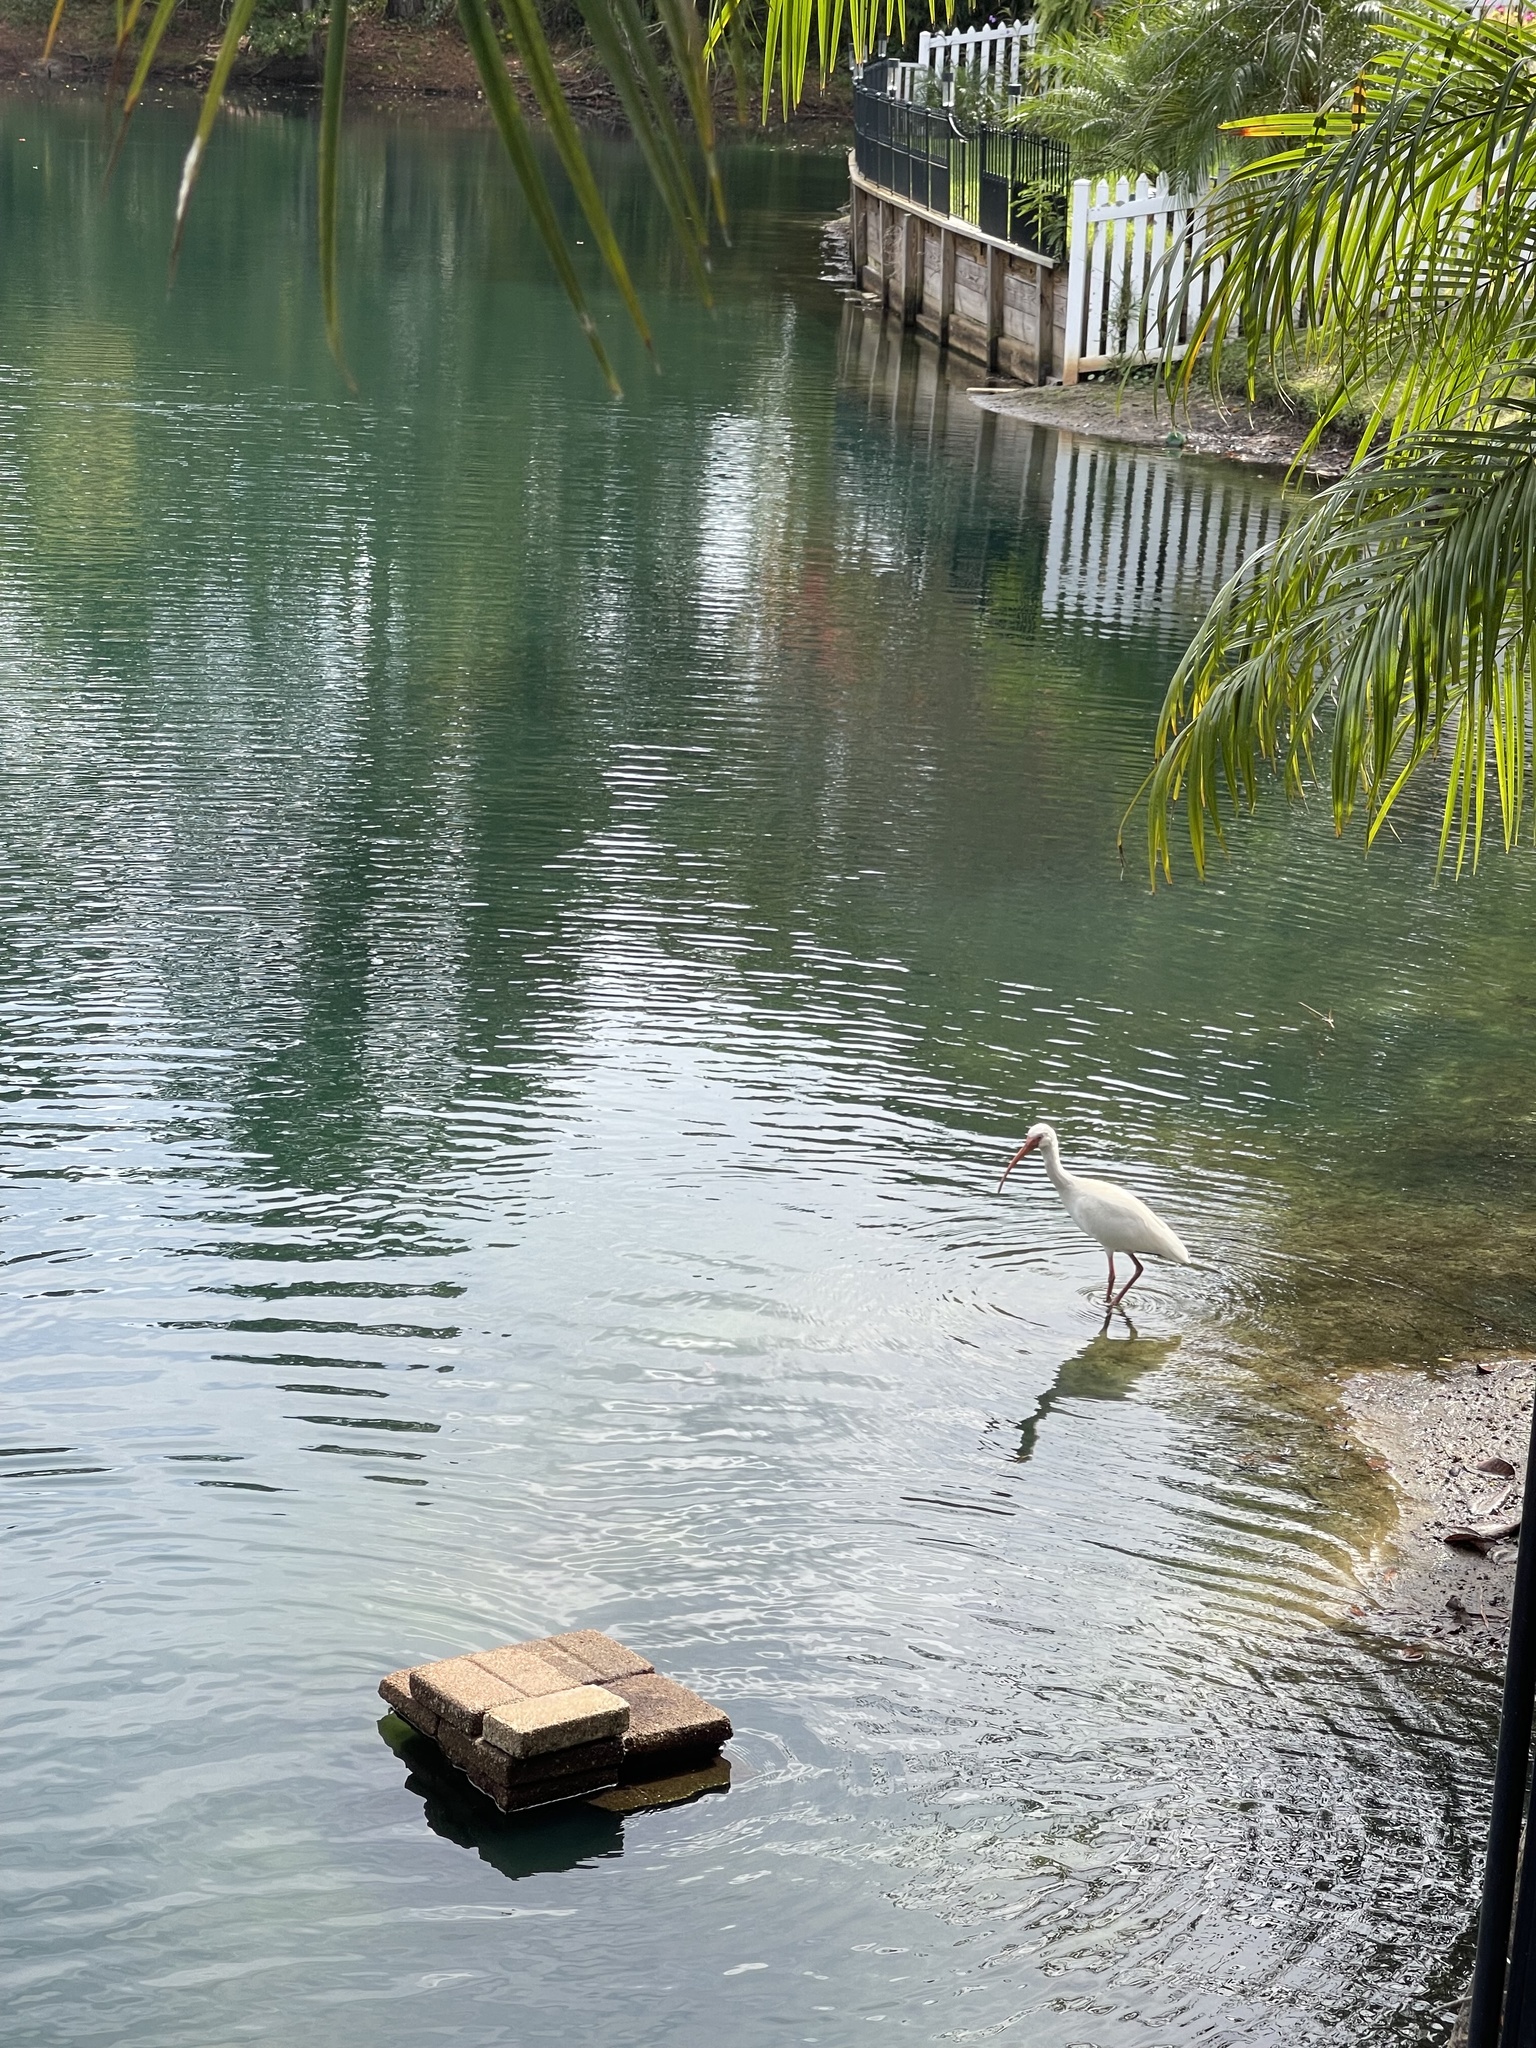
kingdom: Animalia
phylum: Chordata
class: Aves
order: Pelecaniformes
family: Threskiornithidae
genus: Eudocimus
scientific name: Eudocimus albus
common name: White ibis
